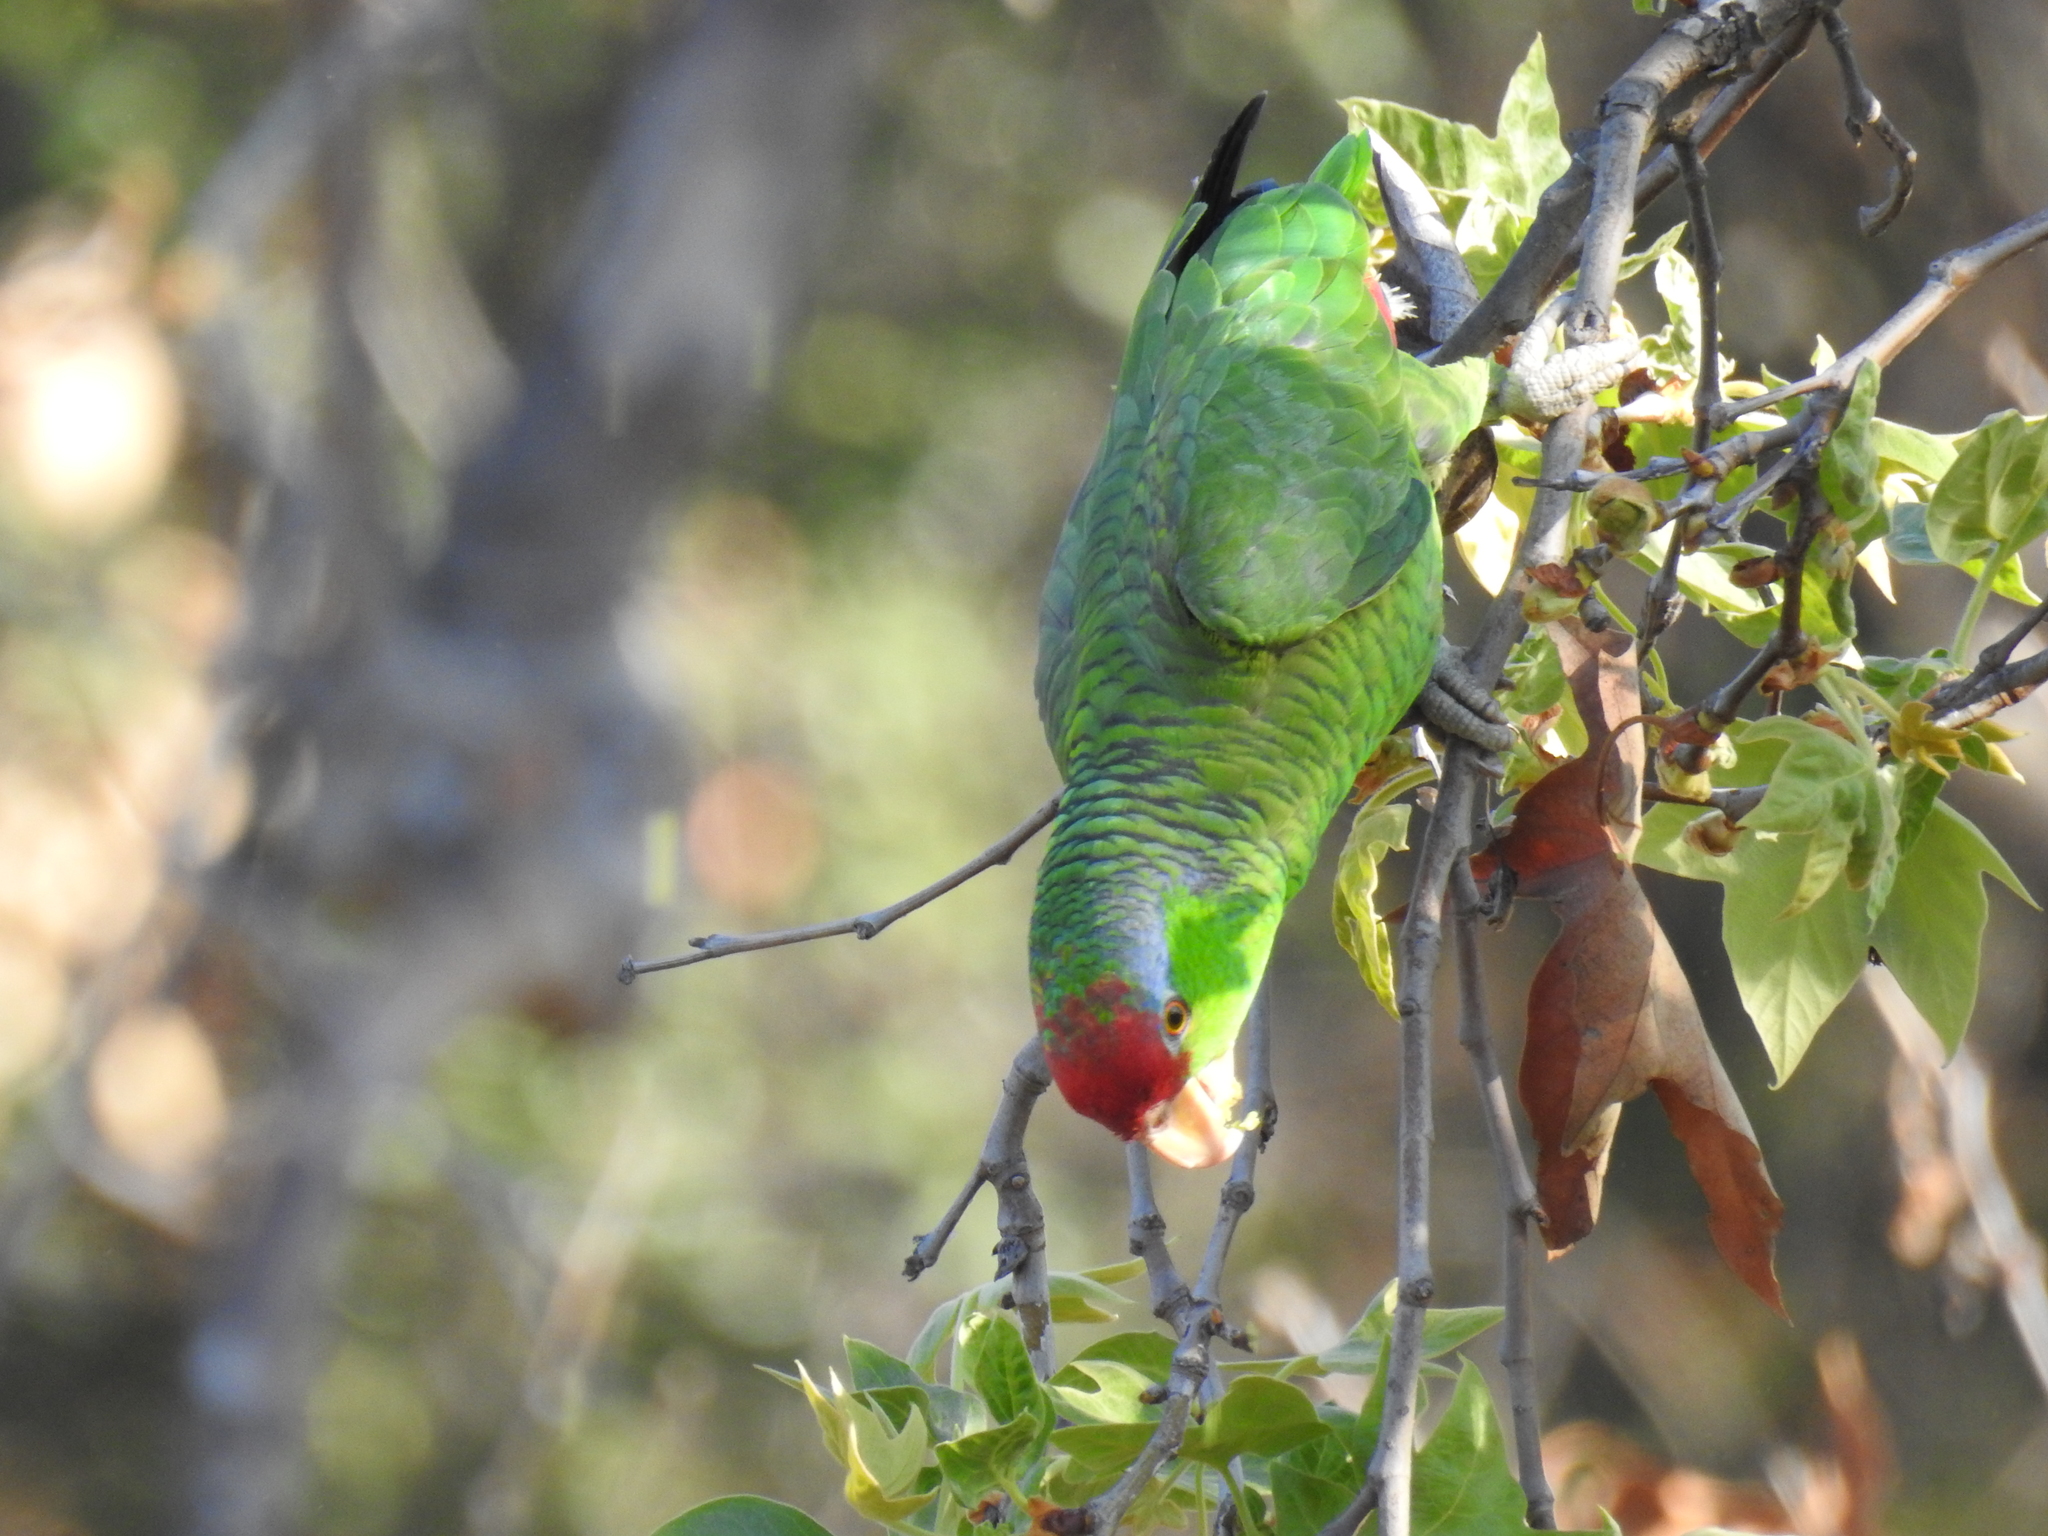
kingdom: Animalia
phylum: Chordata
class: Aves
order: Psittaciformes
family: Psittacidae
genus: Amazona
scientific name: Amazona viridigenalis
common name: Red-crowned amazon
